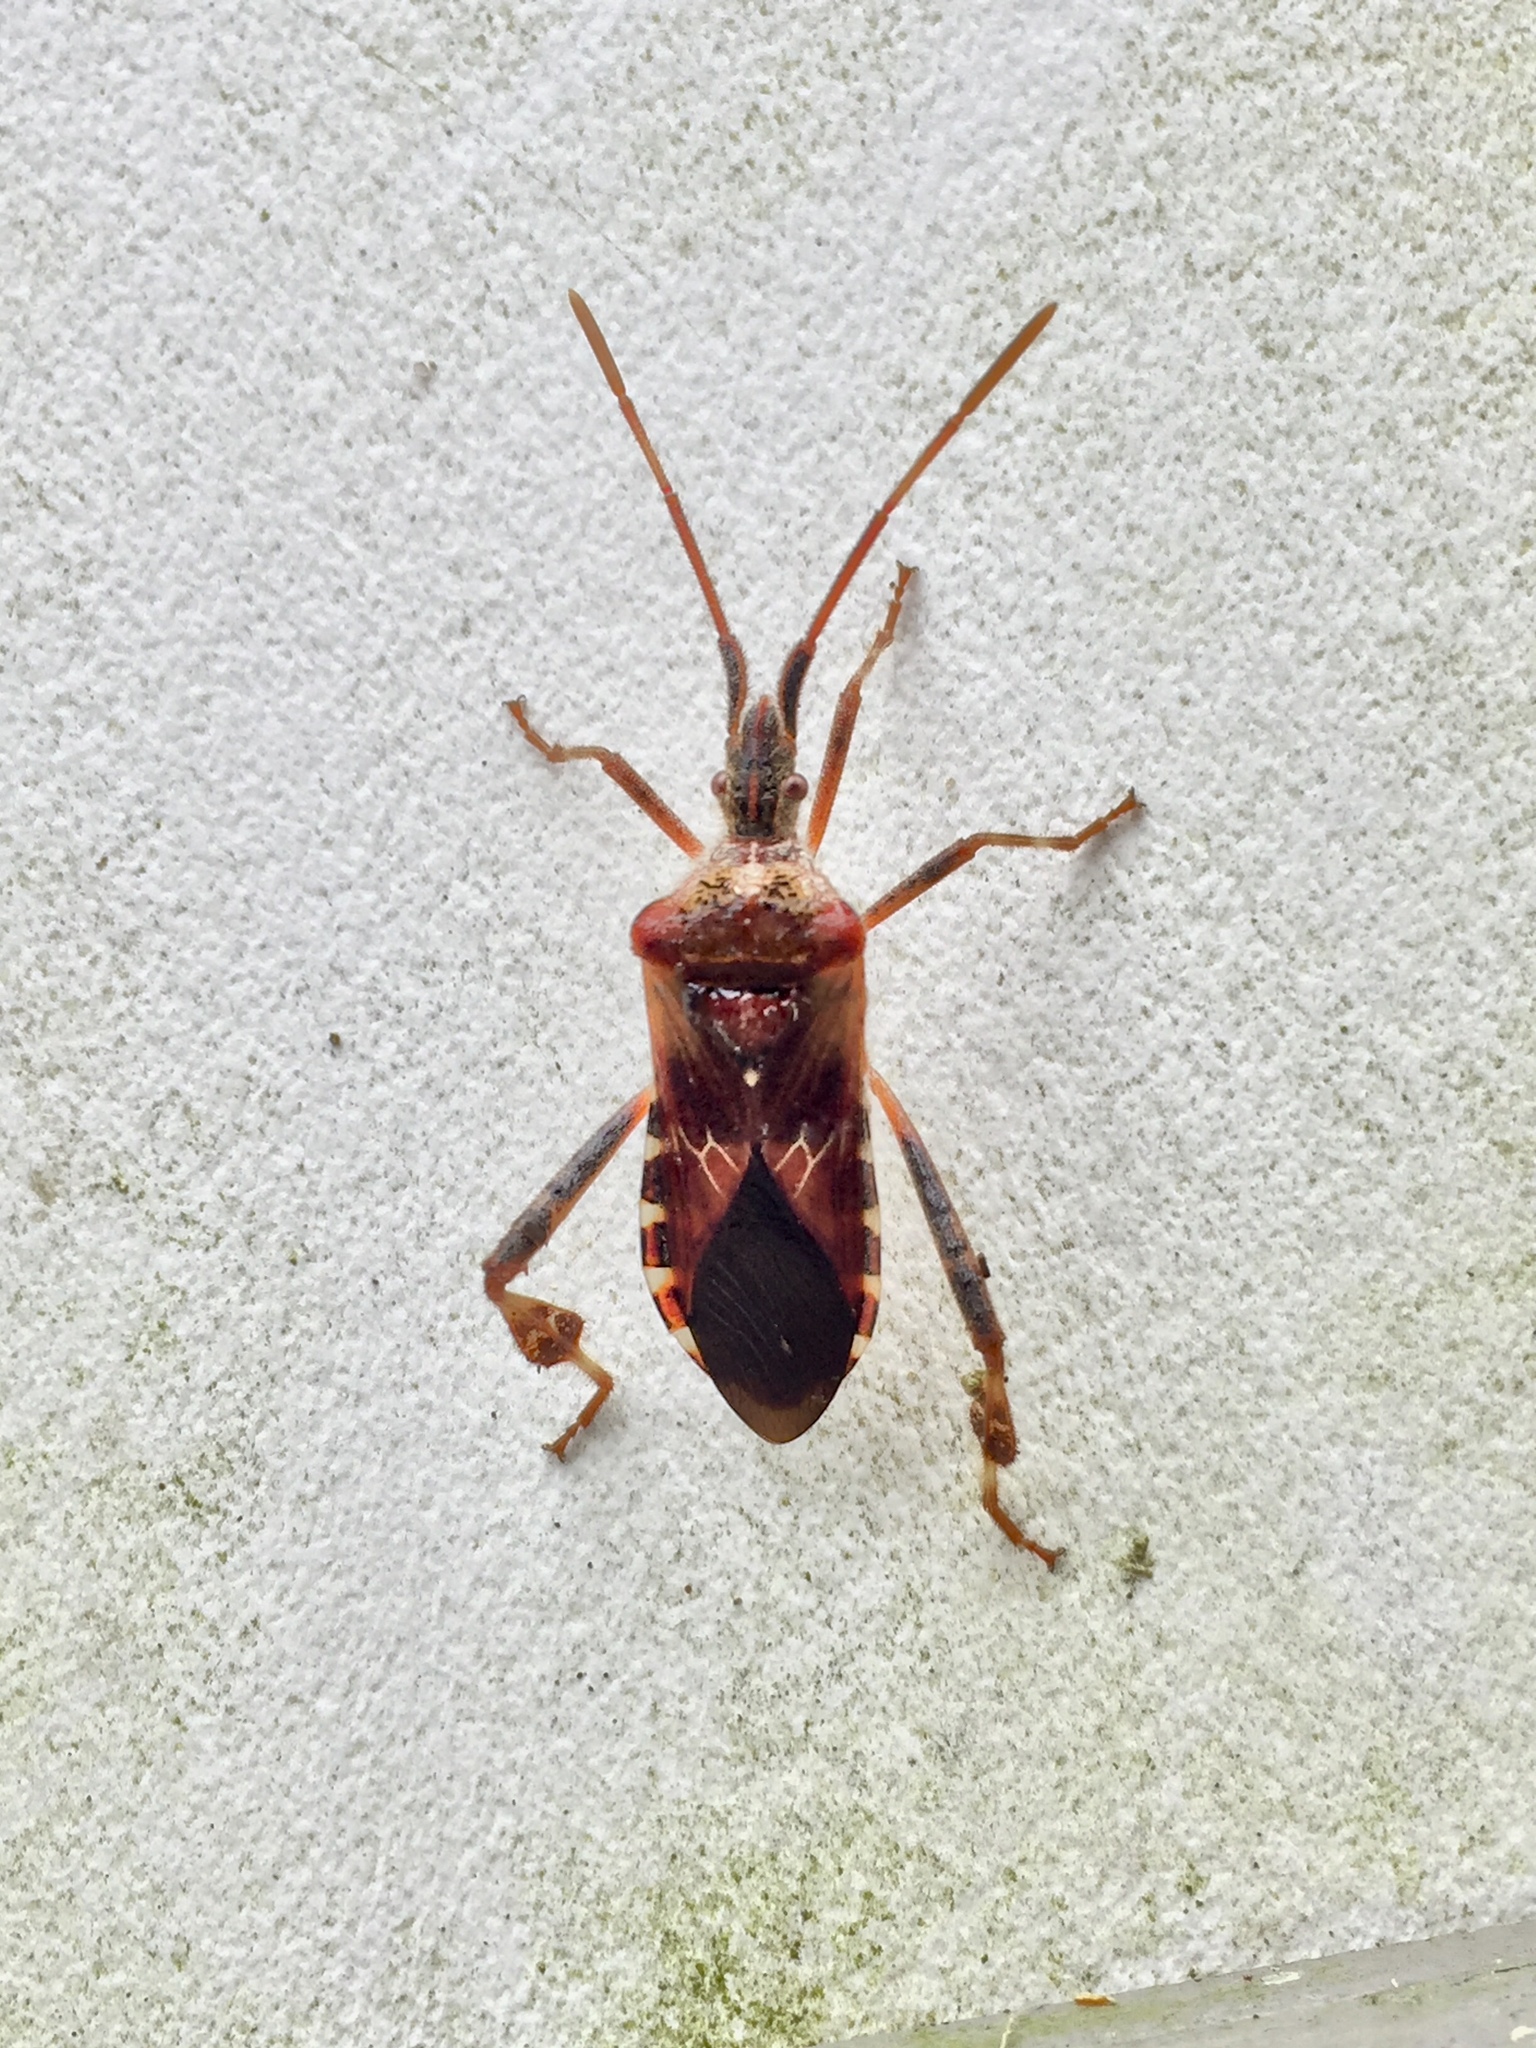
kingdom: Animalia
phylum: Arthropoda
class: Insecta
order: Hemiptera
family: Coreidae
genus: Leptoglossus
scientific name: Leptoglossus occidentalis
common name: Western conifer-seed bug
